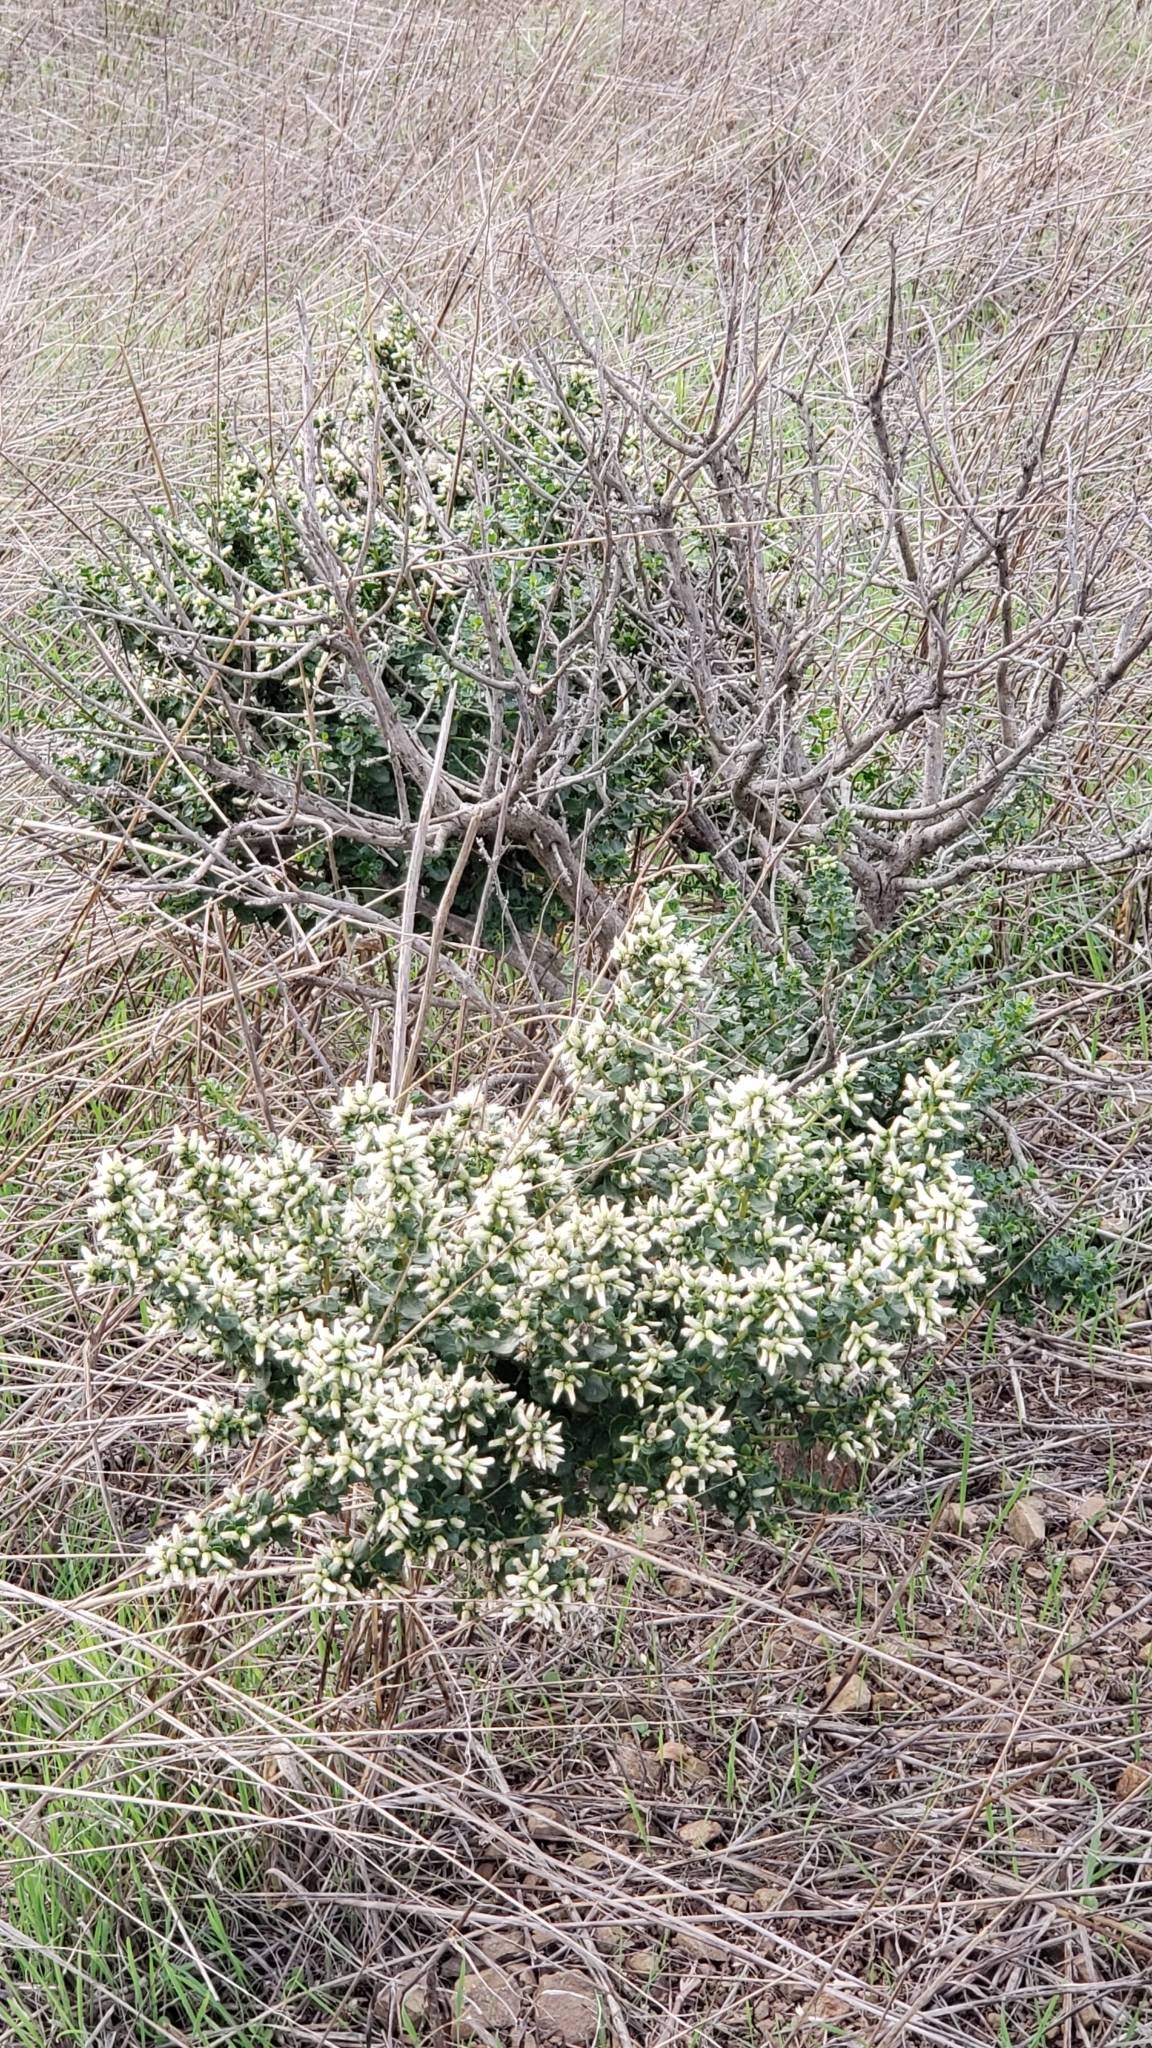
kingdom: Plantae
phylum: Tracheophyta
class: Magnoliopsida
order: Asterales
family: Asteraceae
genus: Baccharis
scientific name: Baccharis pilularis
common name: Coyotebrush
